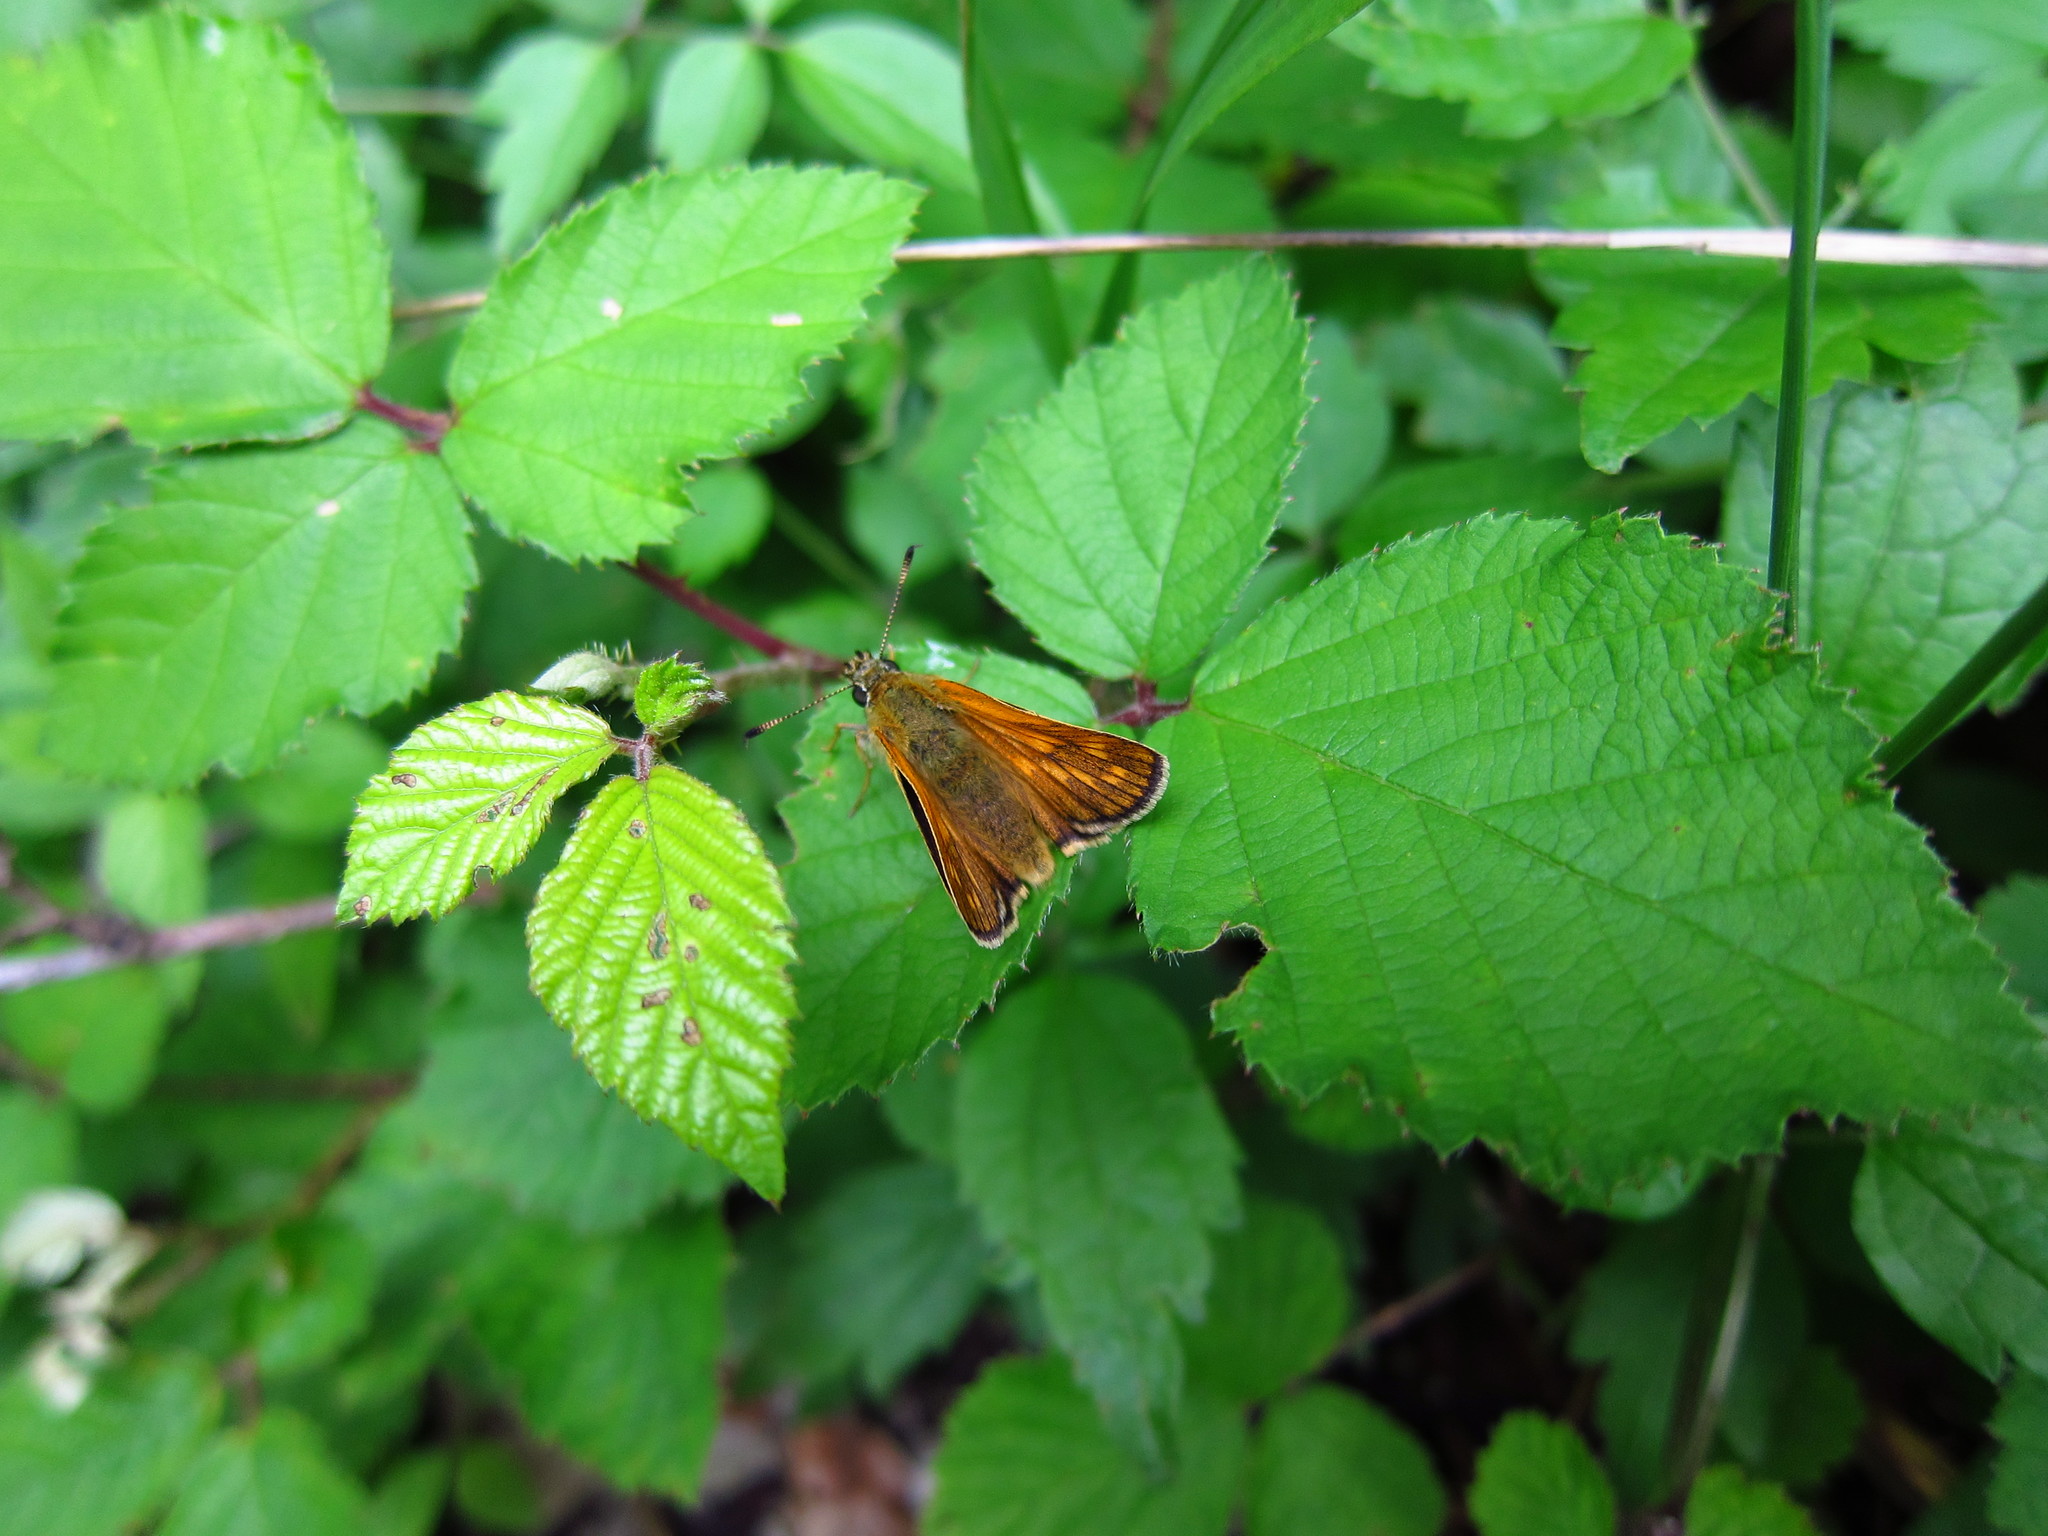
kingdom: Animalia
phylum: Arthropoda
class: Insecta
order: Lepidoptera
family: Hesperiidae
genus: Ochlodes
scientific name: Ochlodes venata
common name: Large skipper
